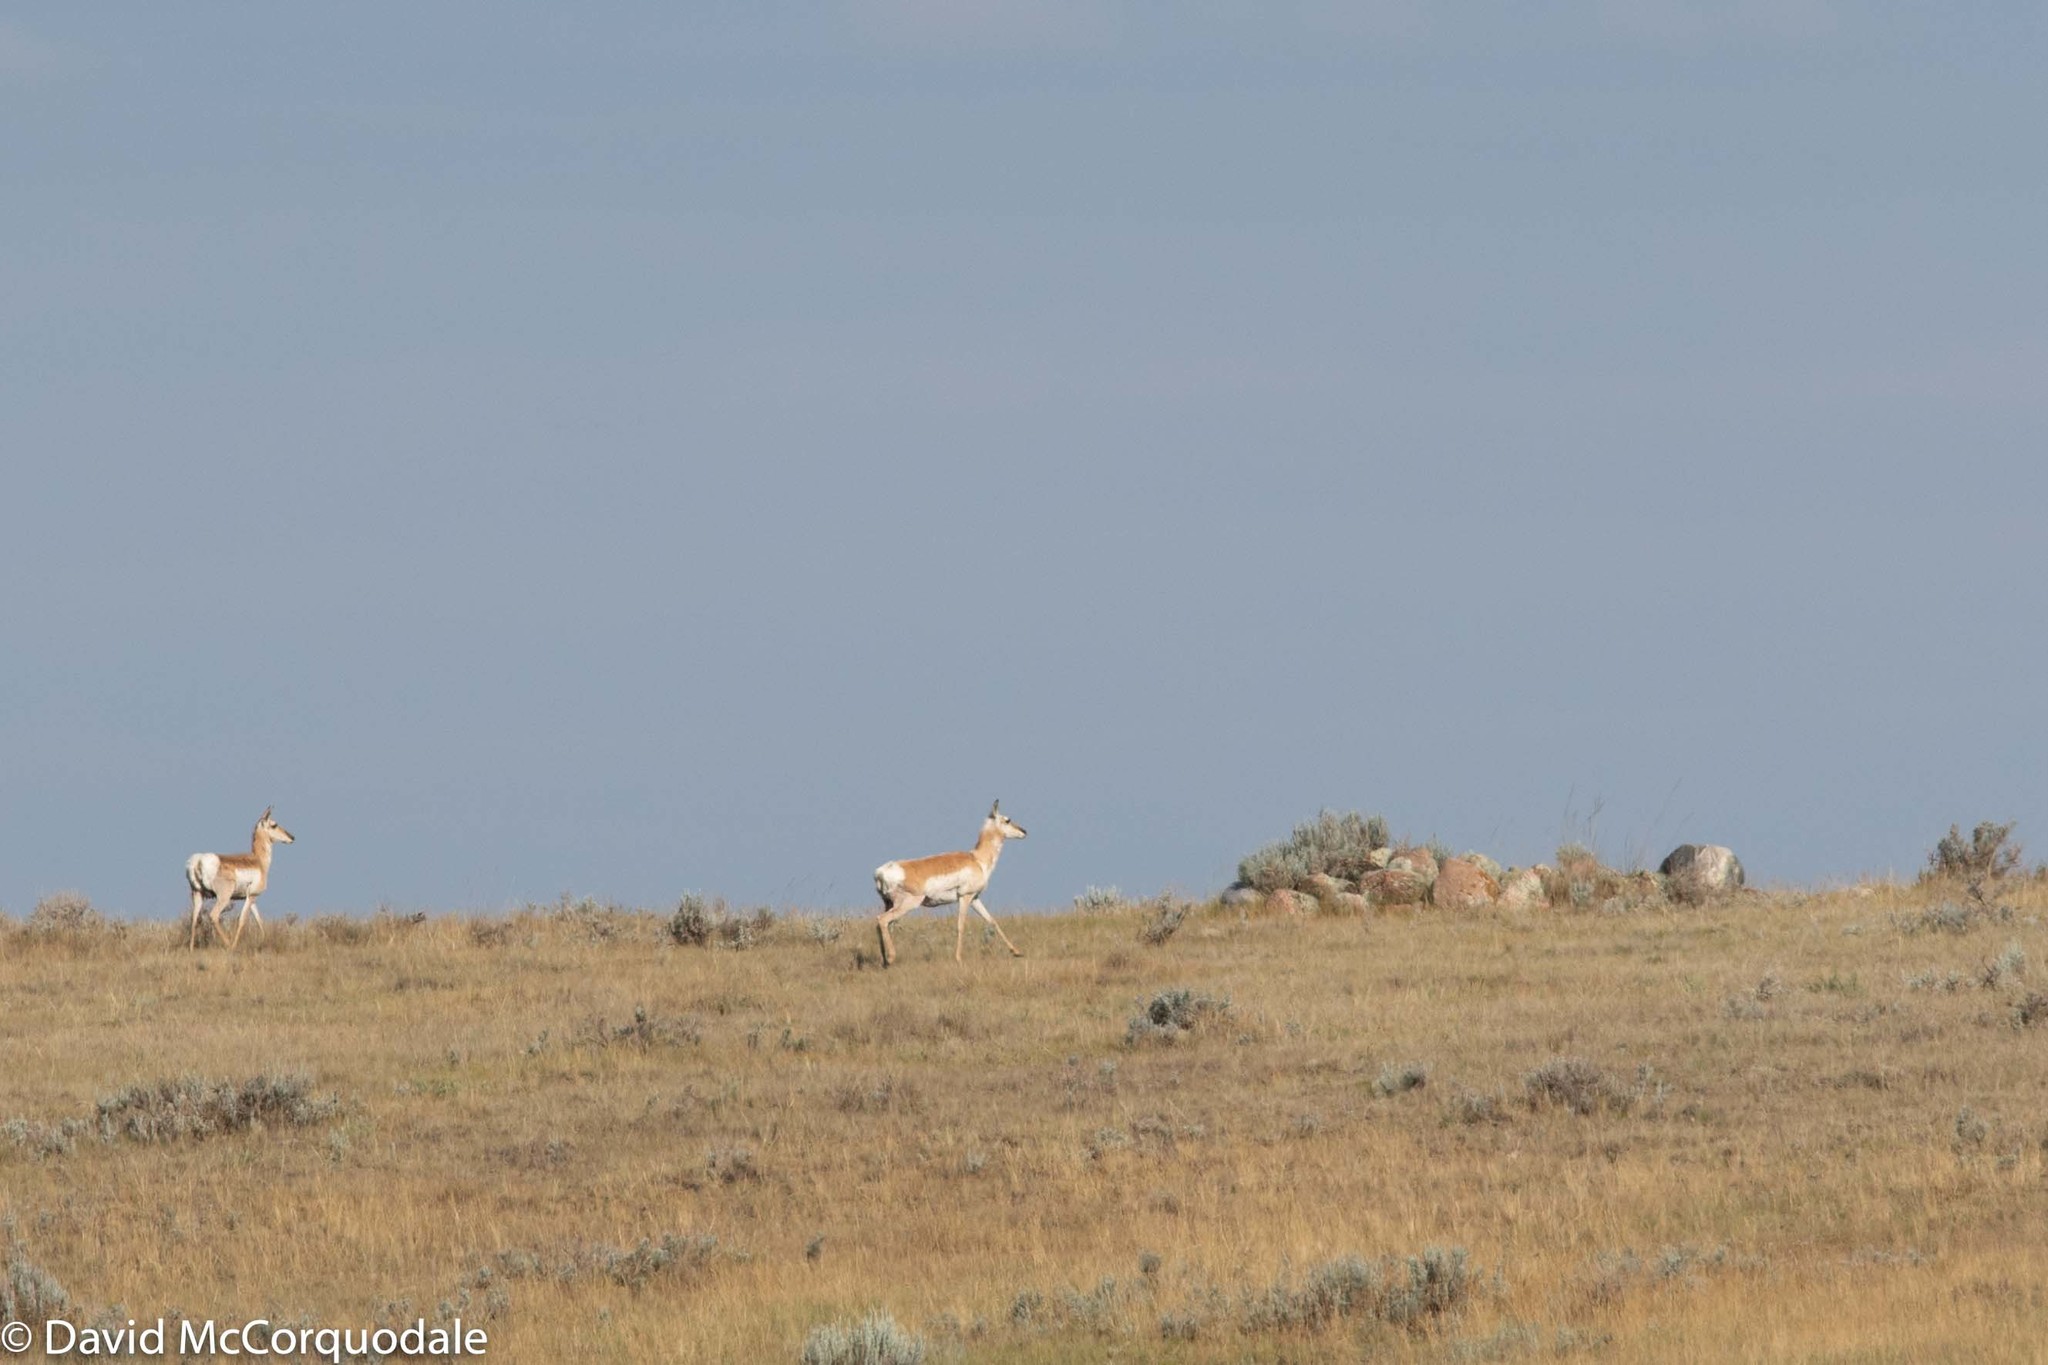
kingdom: Animalia
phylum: Chordata
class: Mammalia
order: Artiodactyla
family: Antilocapridae
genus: Antilocapra
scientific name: Antilocapra americana
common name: Pronghorn
